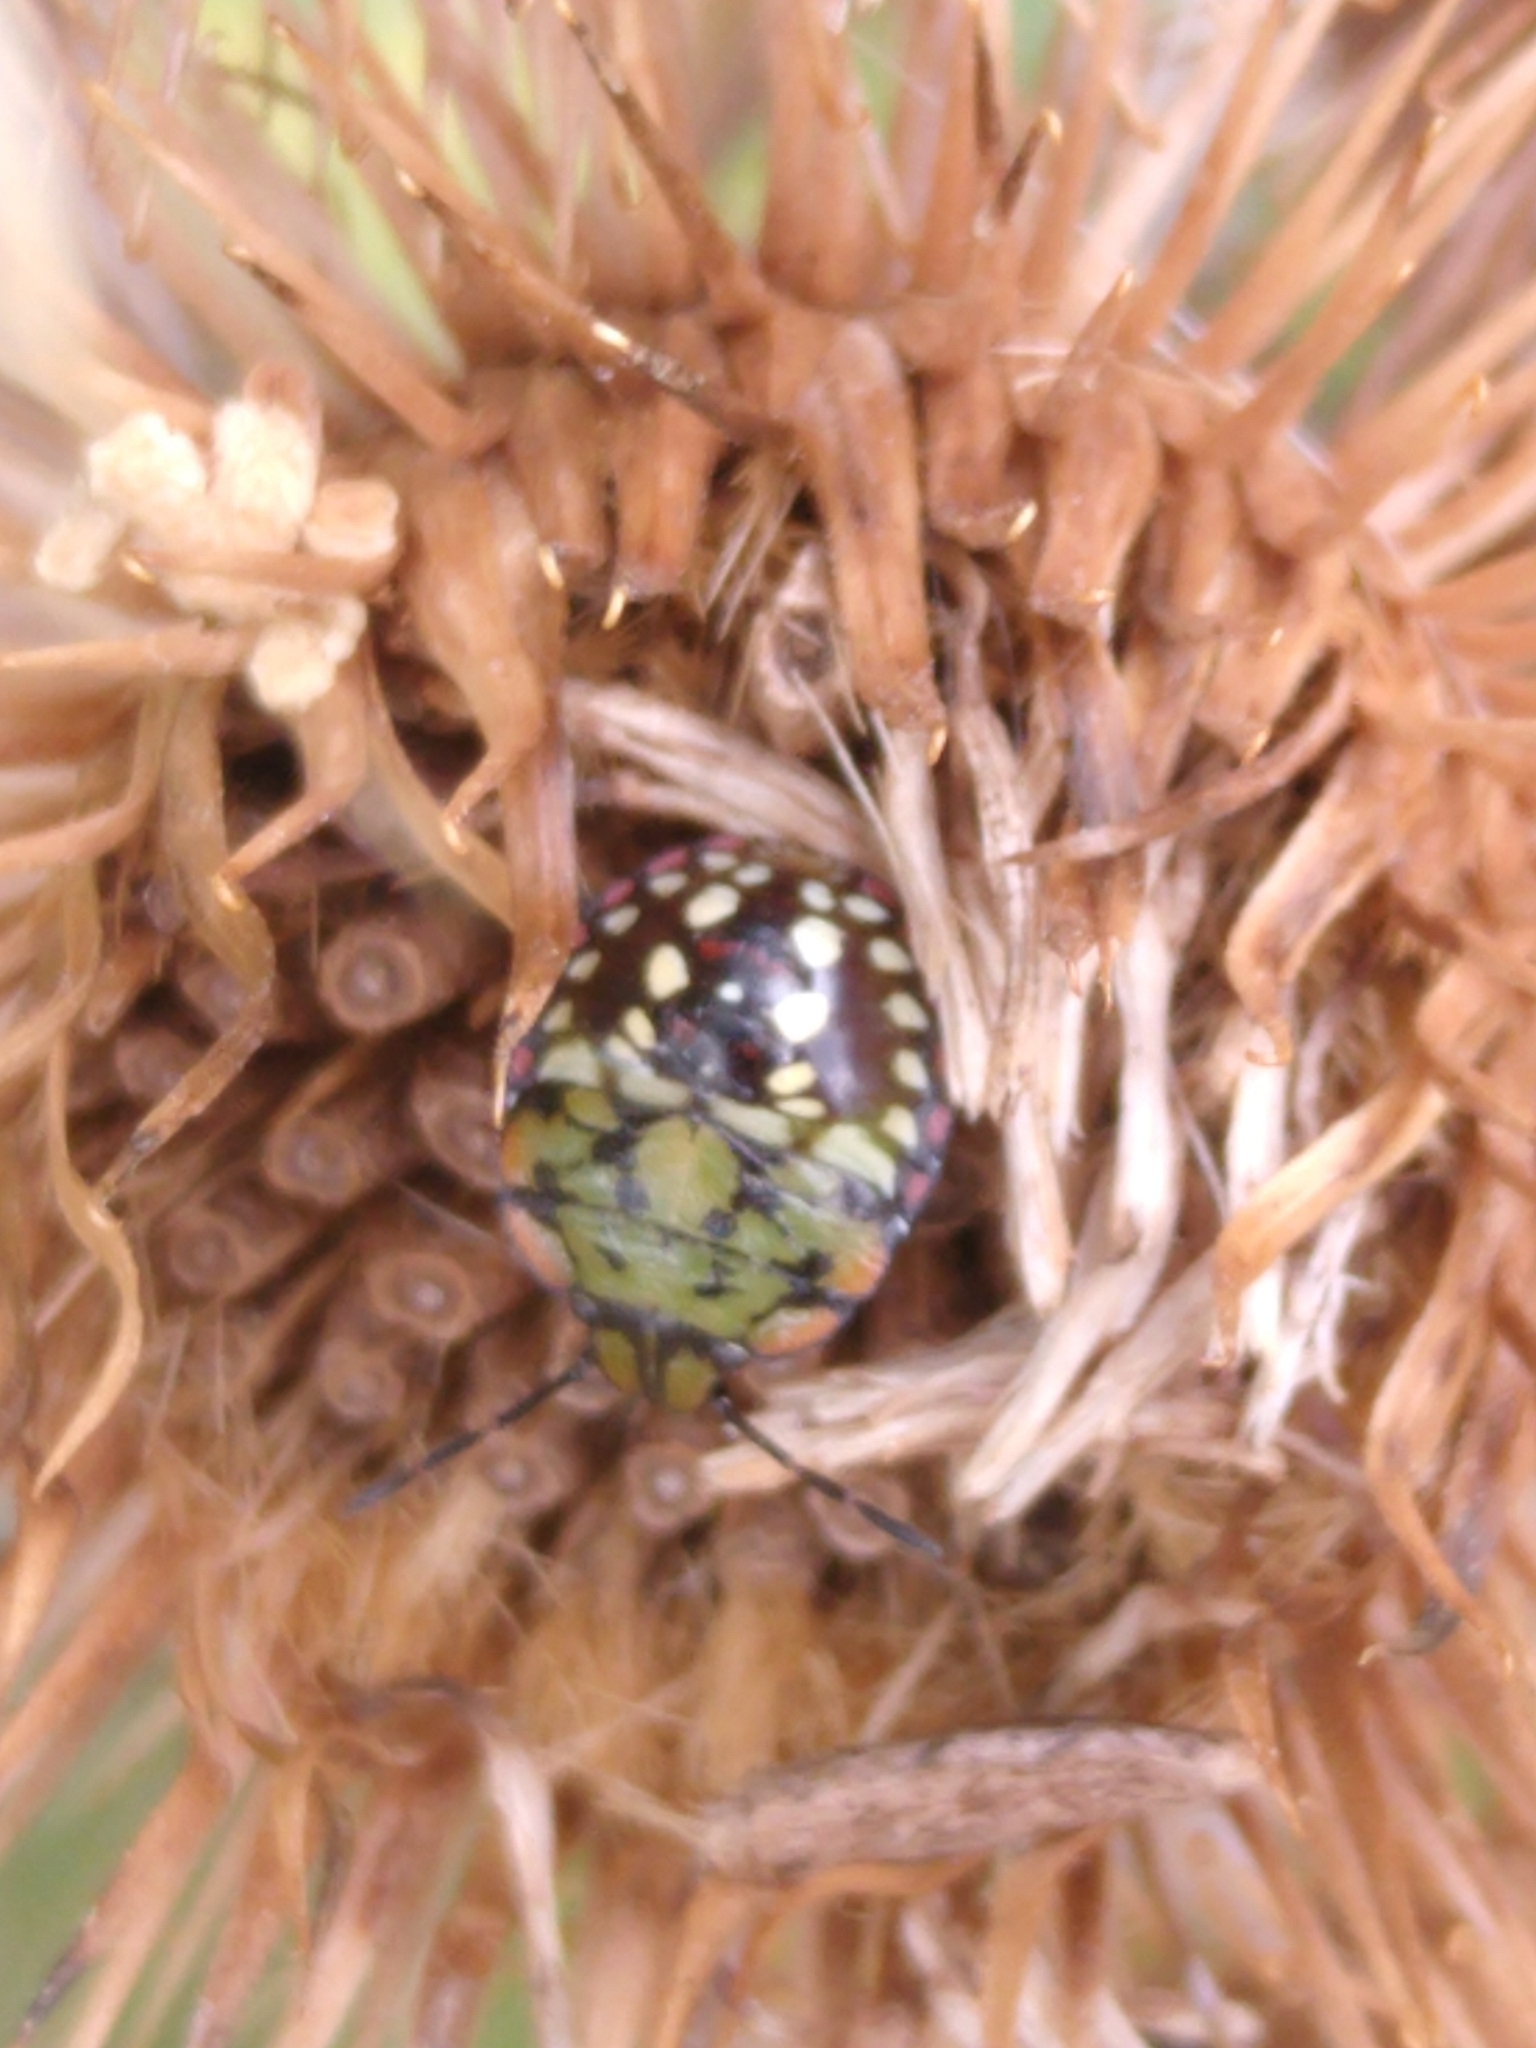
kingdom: Animalia
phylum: Arthropoda
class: Insecta
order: Hemiptera
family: Pentatomidae
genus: Nezara
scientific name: Nezara viridula
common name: Southern green stink bug
